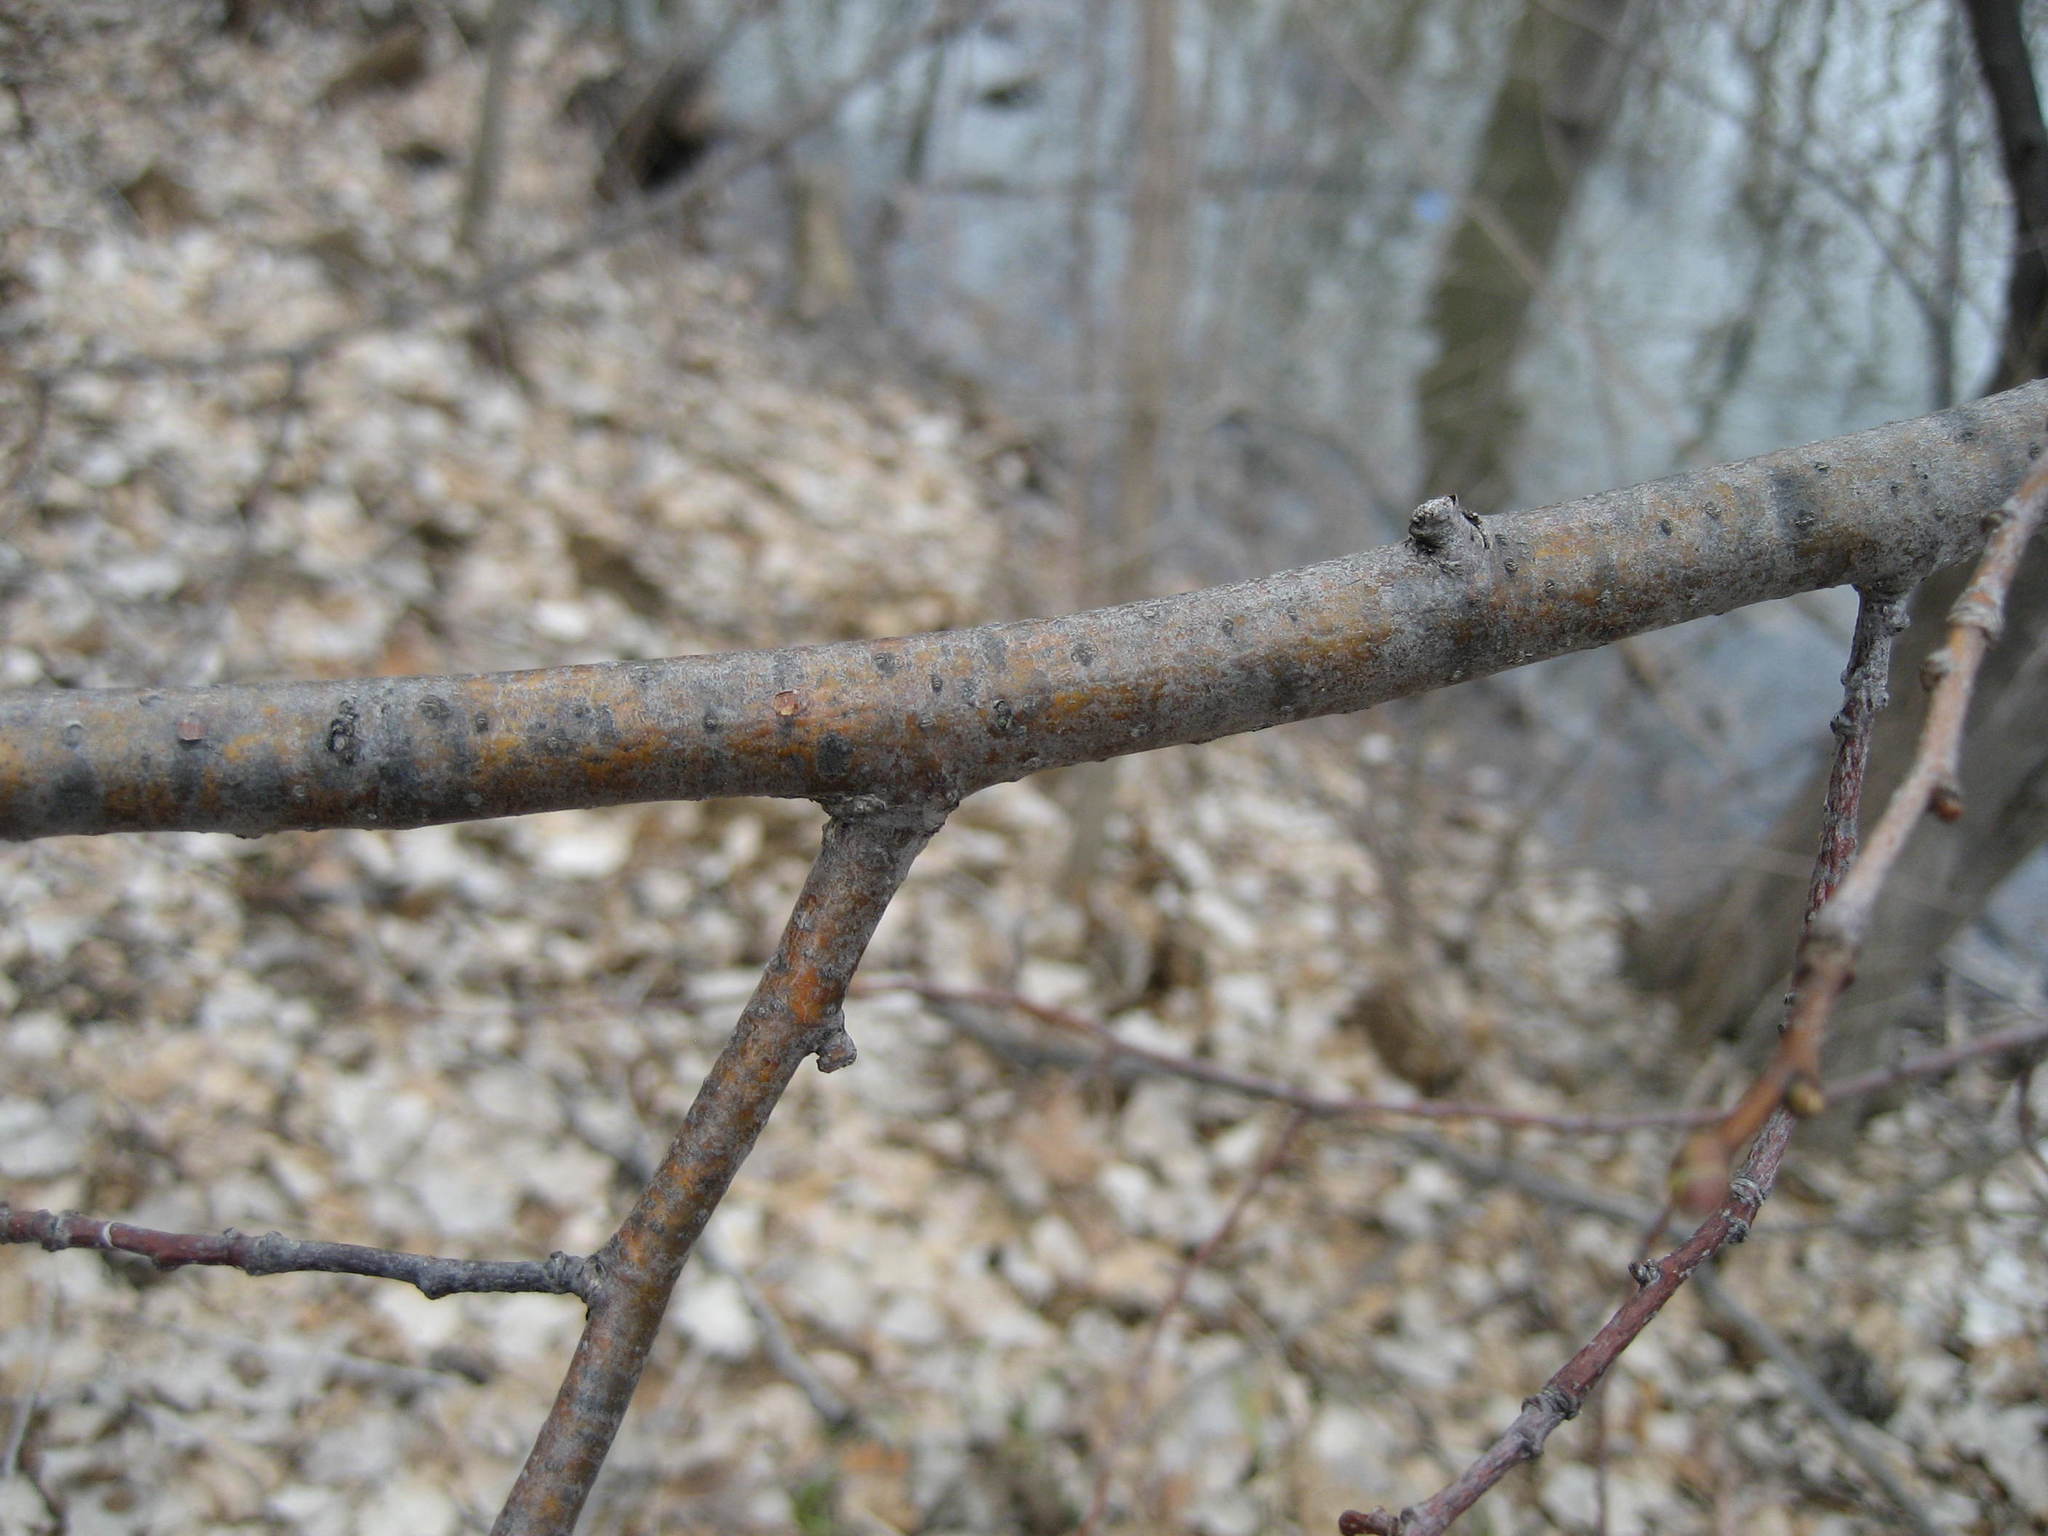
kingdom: Plantae
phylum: Tracheophyta
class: Magnoliopsida
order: Malvales
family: Malvaceae
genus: Tilia
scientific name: Tilia cordata
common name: Small-leaved lime
